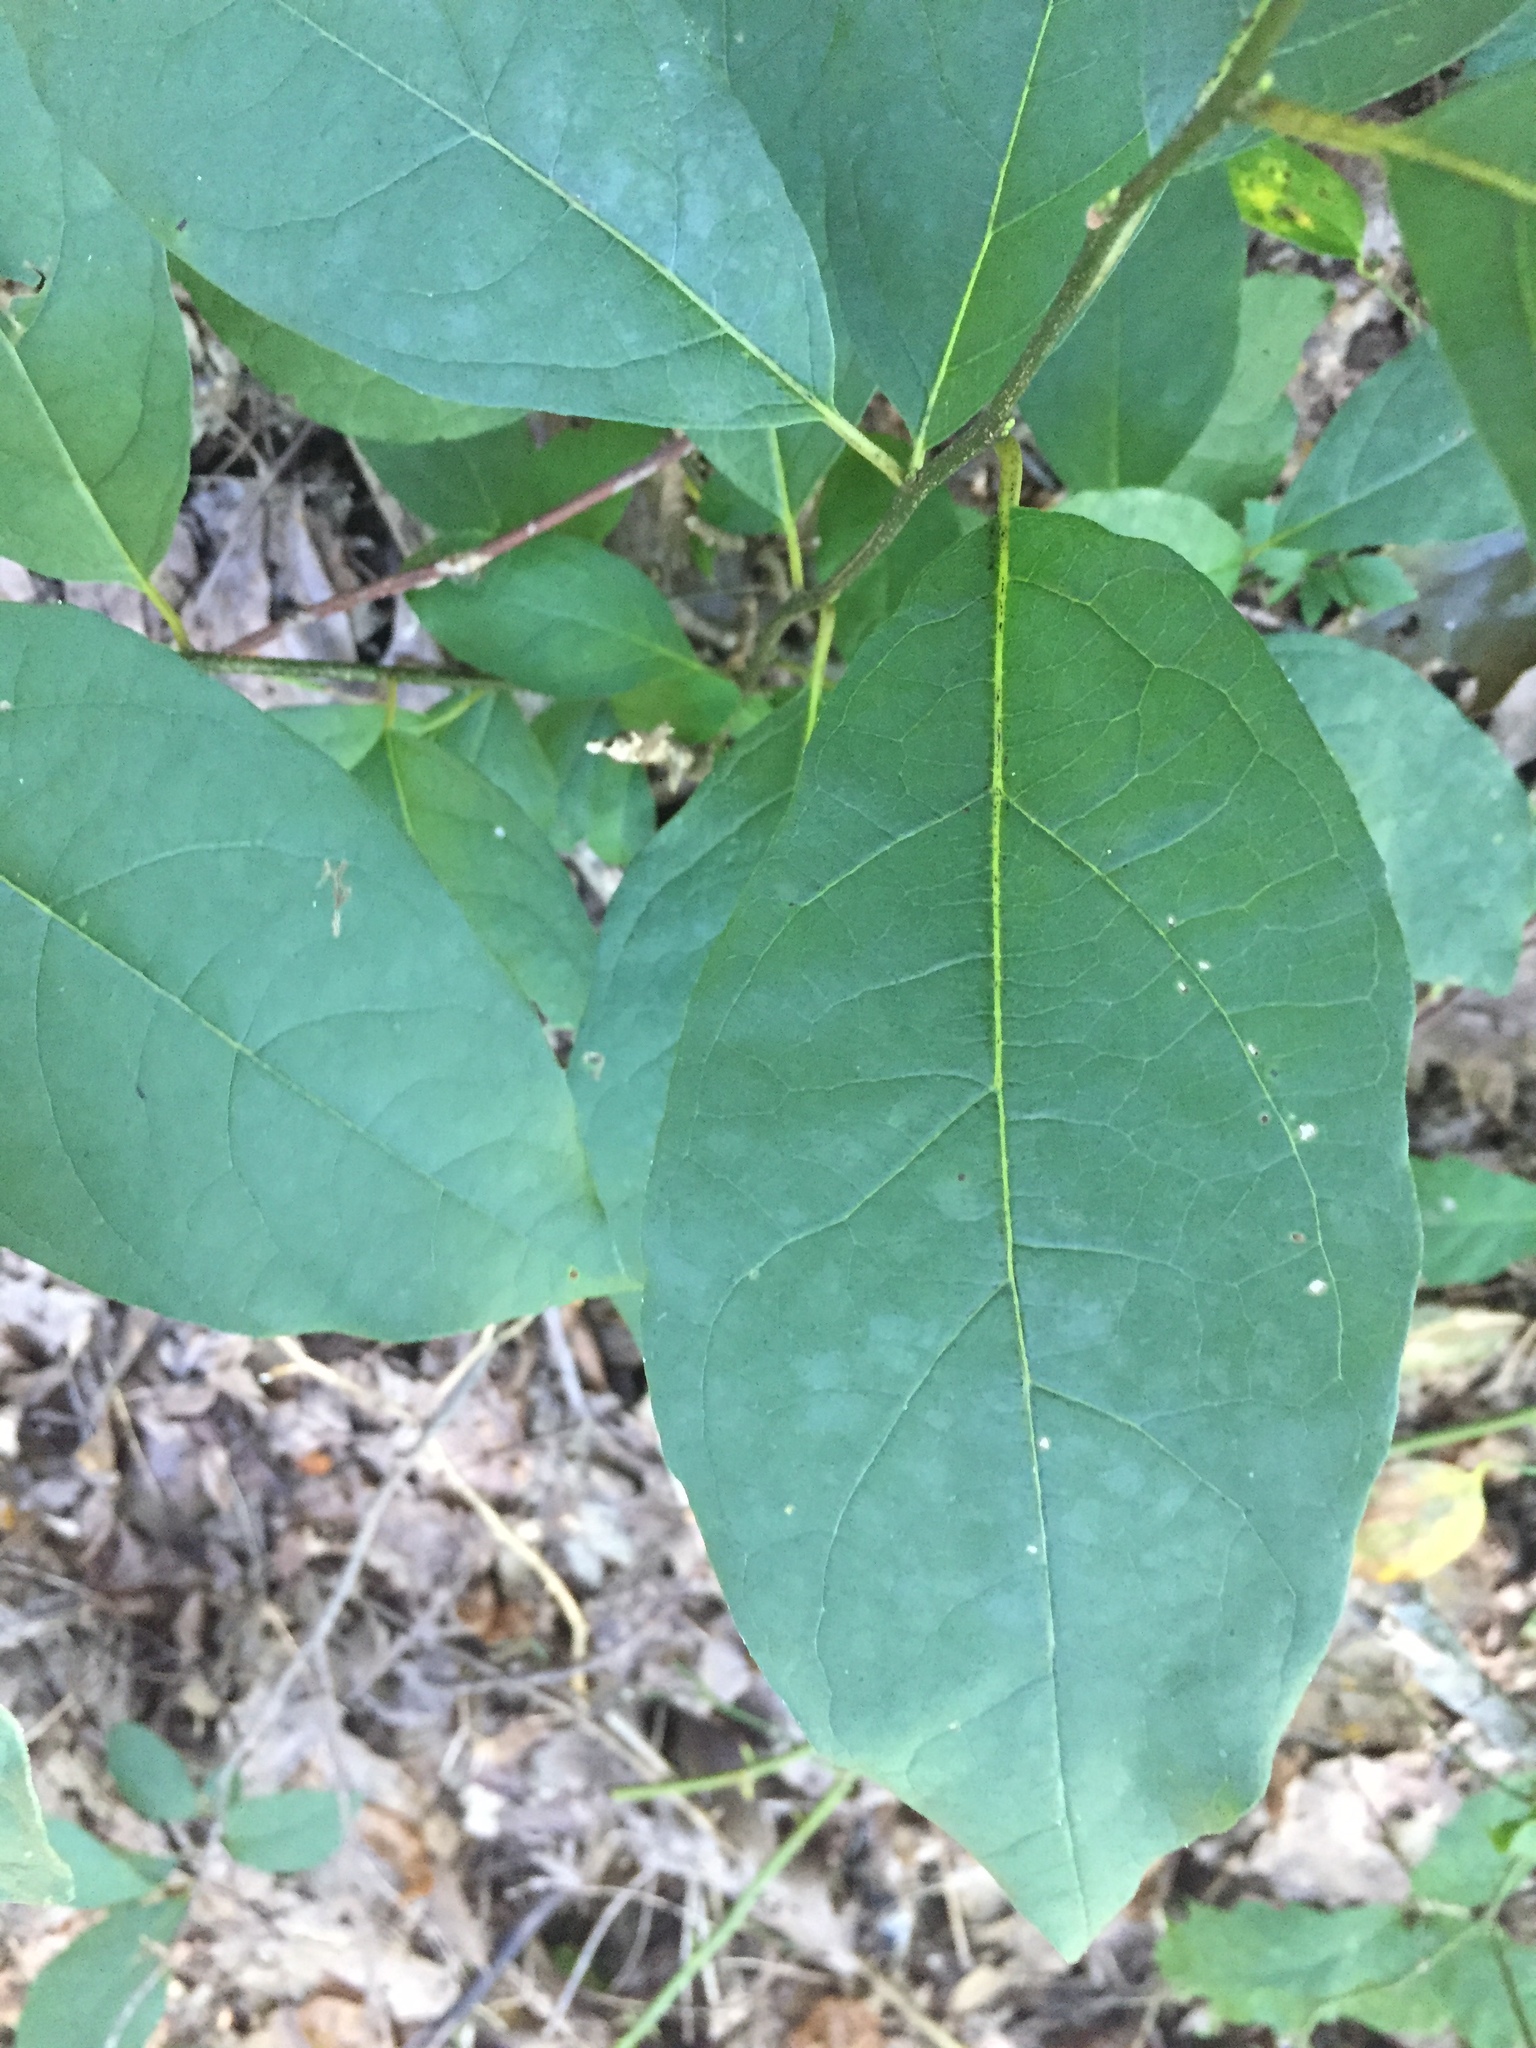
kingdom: Plantae
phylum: Tracheophyta
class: Magnoliopsida
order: Laurales
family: Lauraceae
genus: Lindera
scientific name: Lindera benzoin
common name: Spicebush
